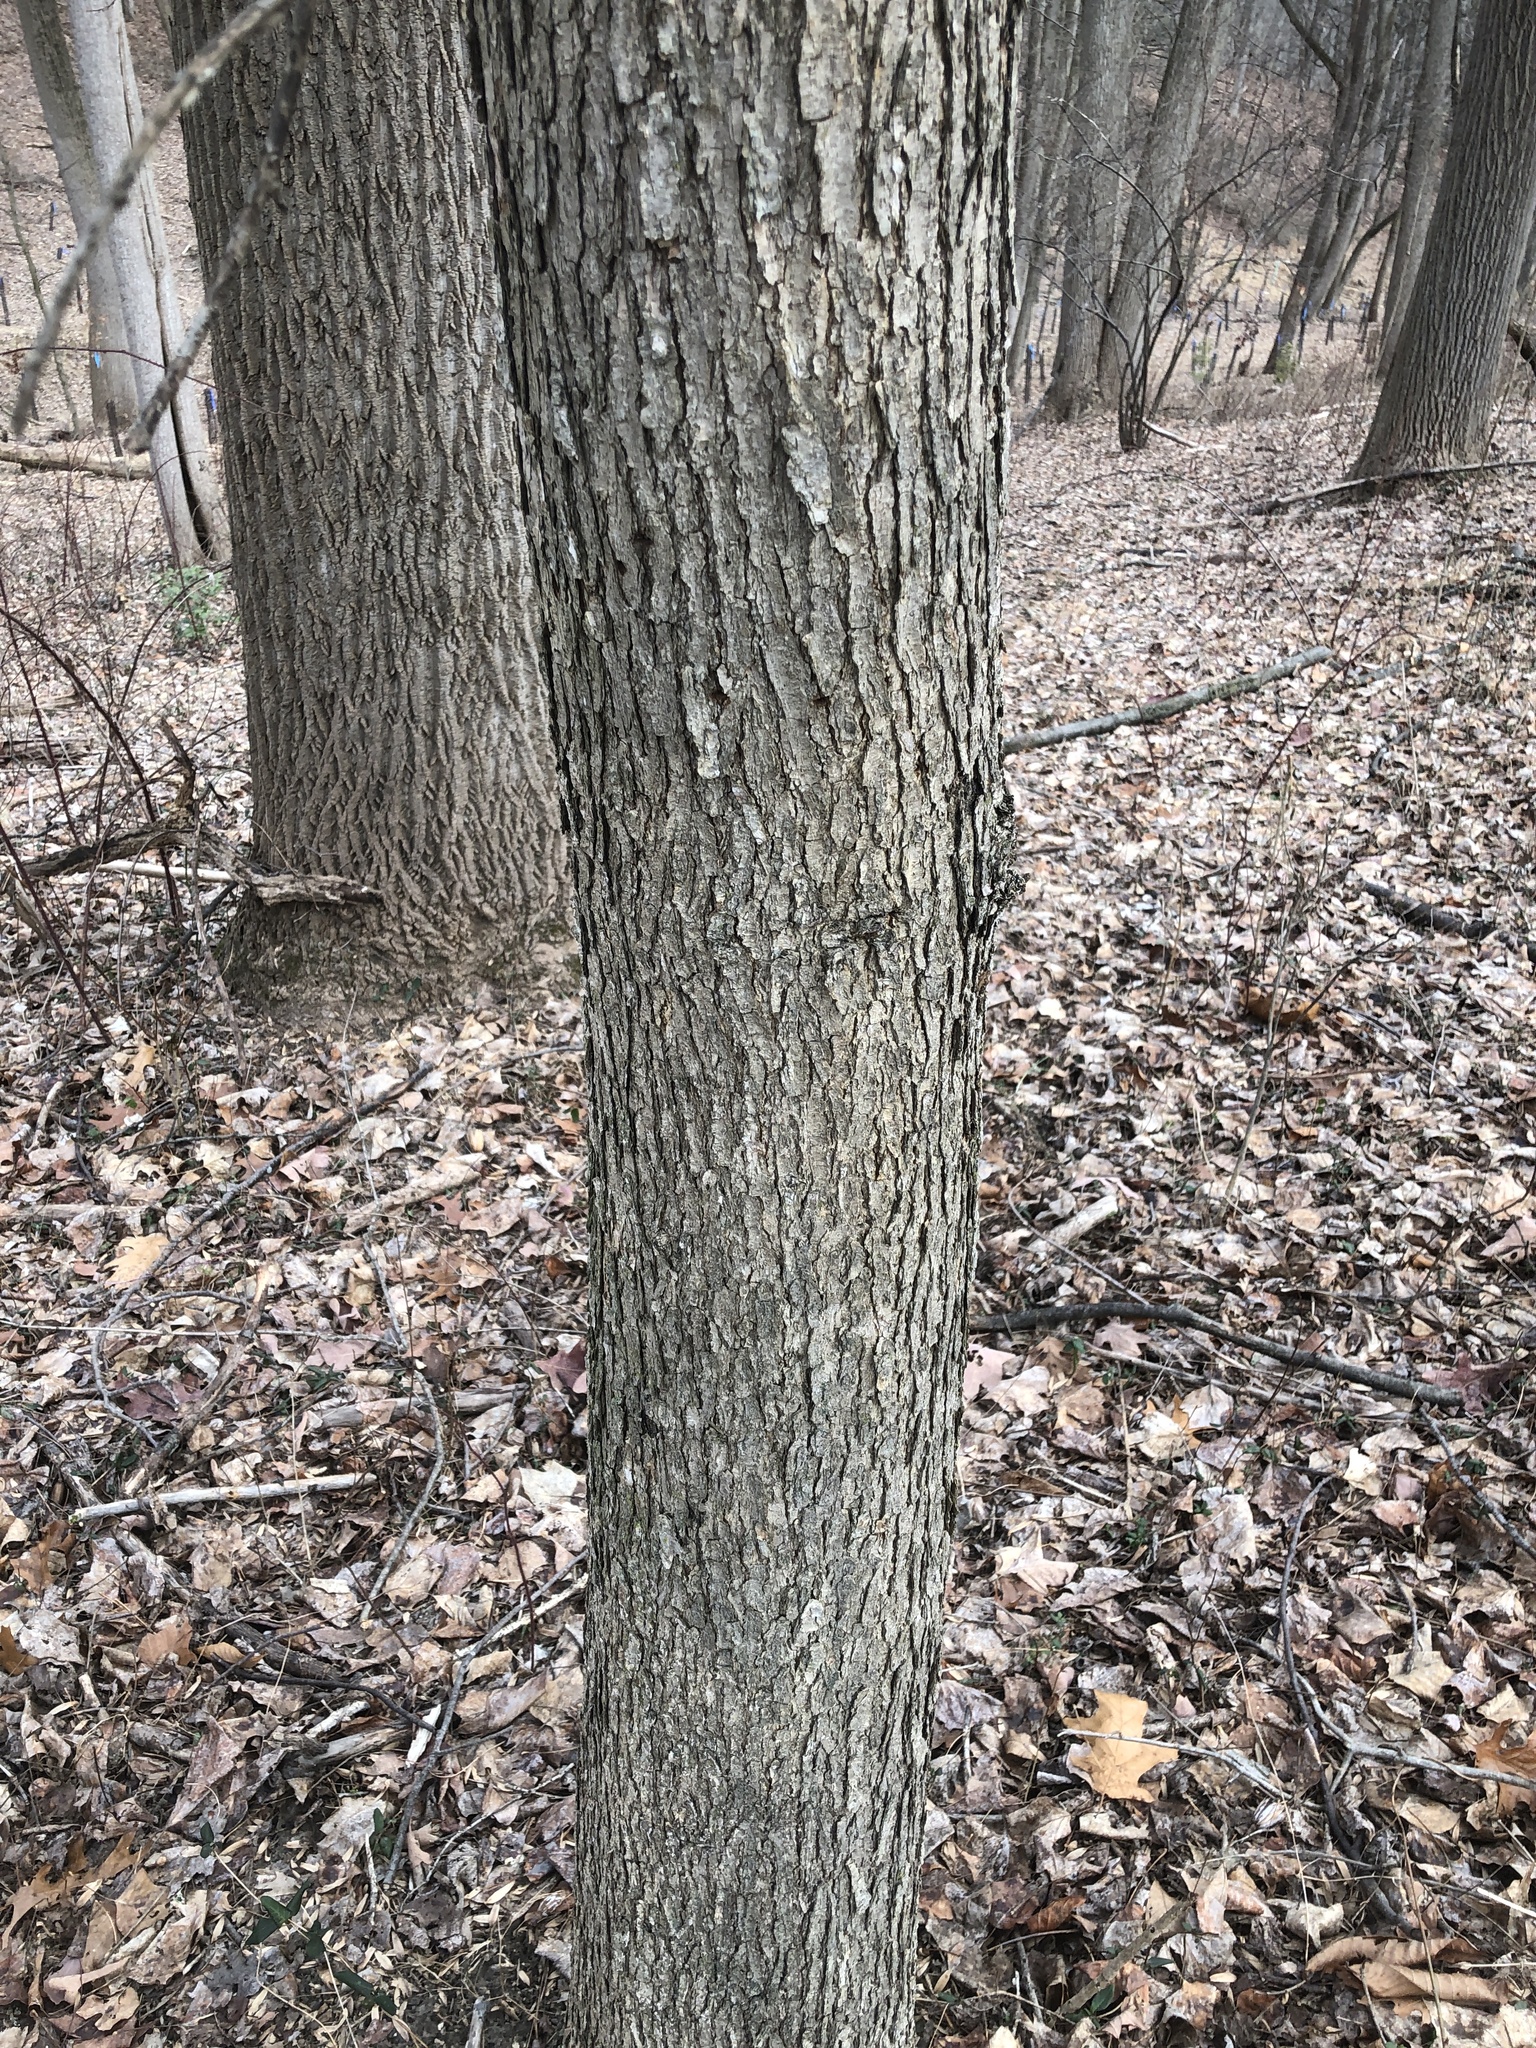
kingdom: Plantae
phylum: Tracheophyta
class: Magnoliopsida
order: Fagales
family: Fagaceae
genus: Quercus
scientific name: Quercus alba
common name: White oak
